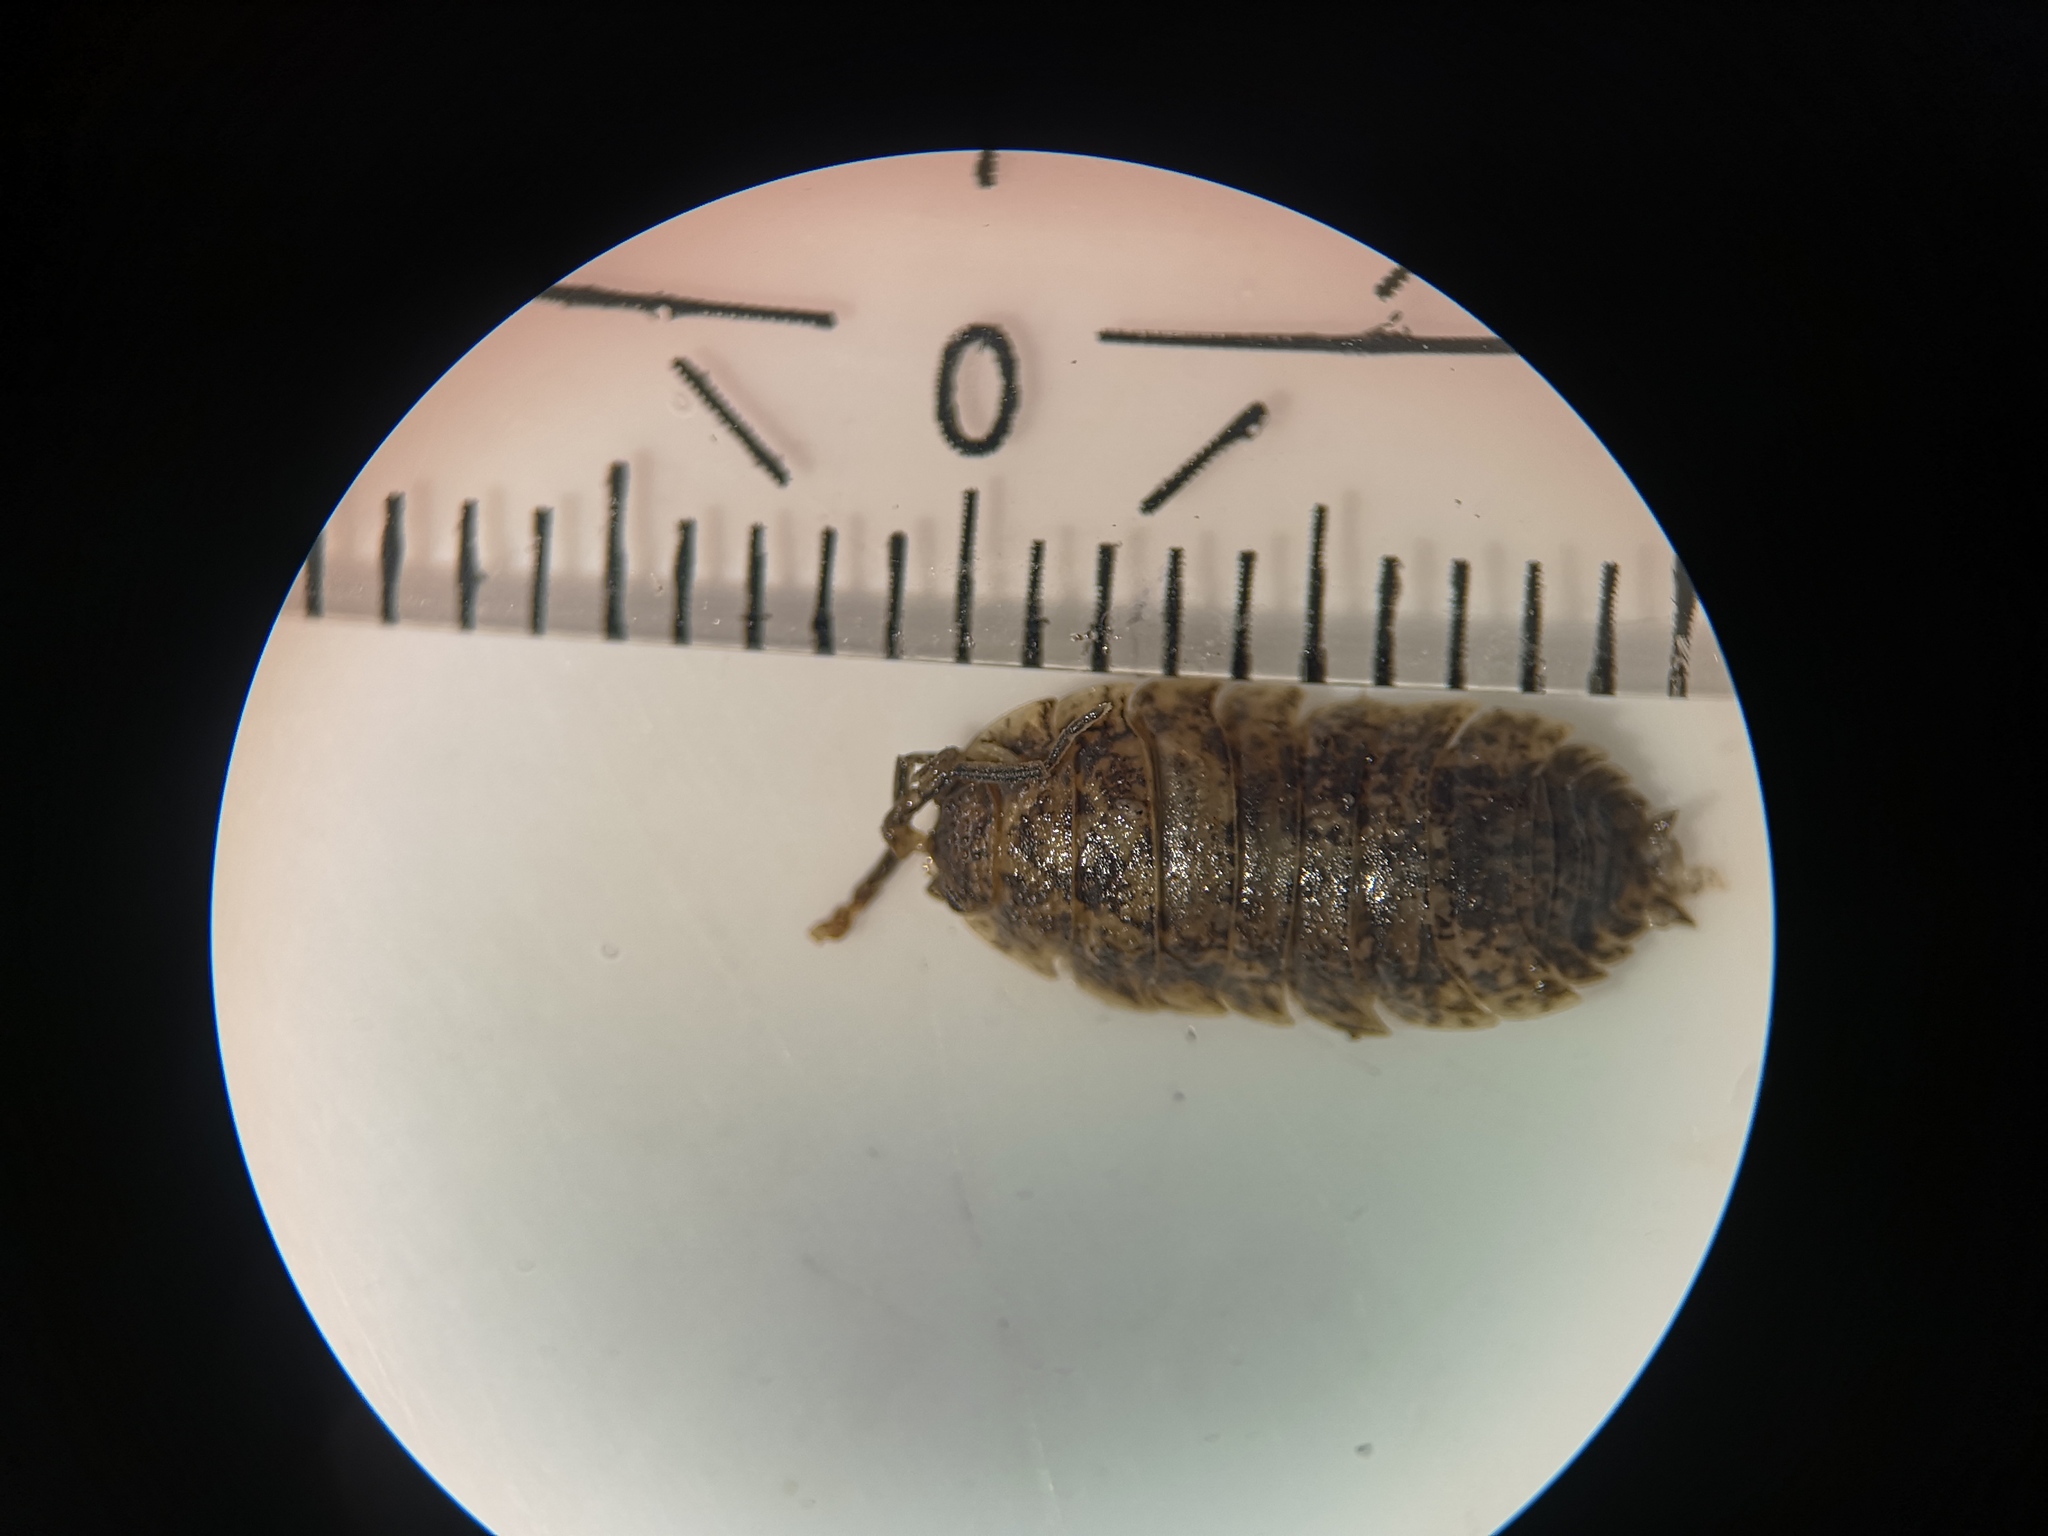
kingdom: Animalia
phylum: Arthropoda
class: Malacostraca
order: Isopoda
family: Porcellionidae
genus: Porcellio
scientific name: Porcellio scaber
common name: Common rough woodlouse
